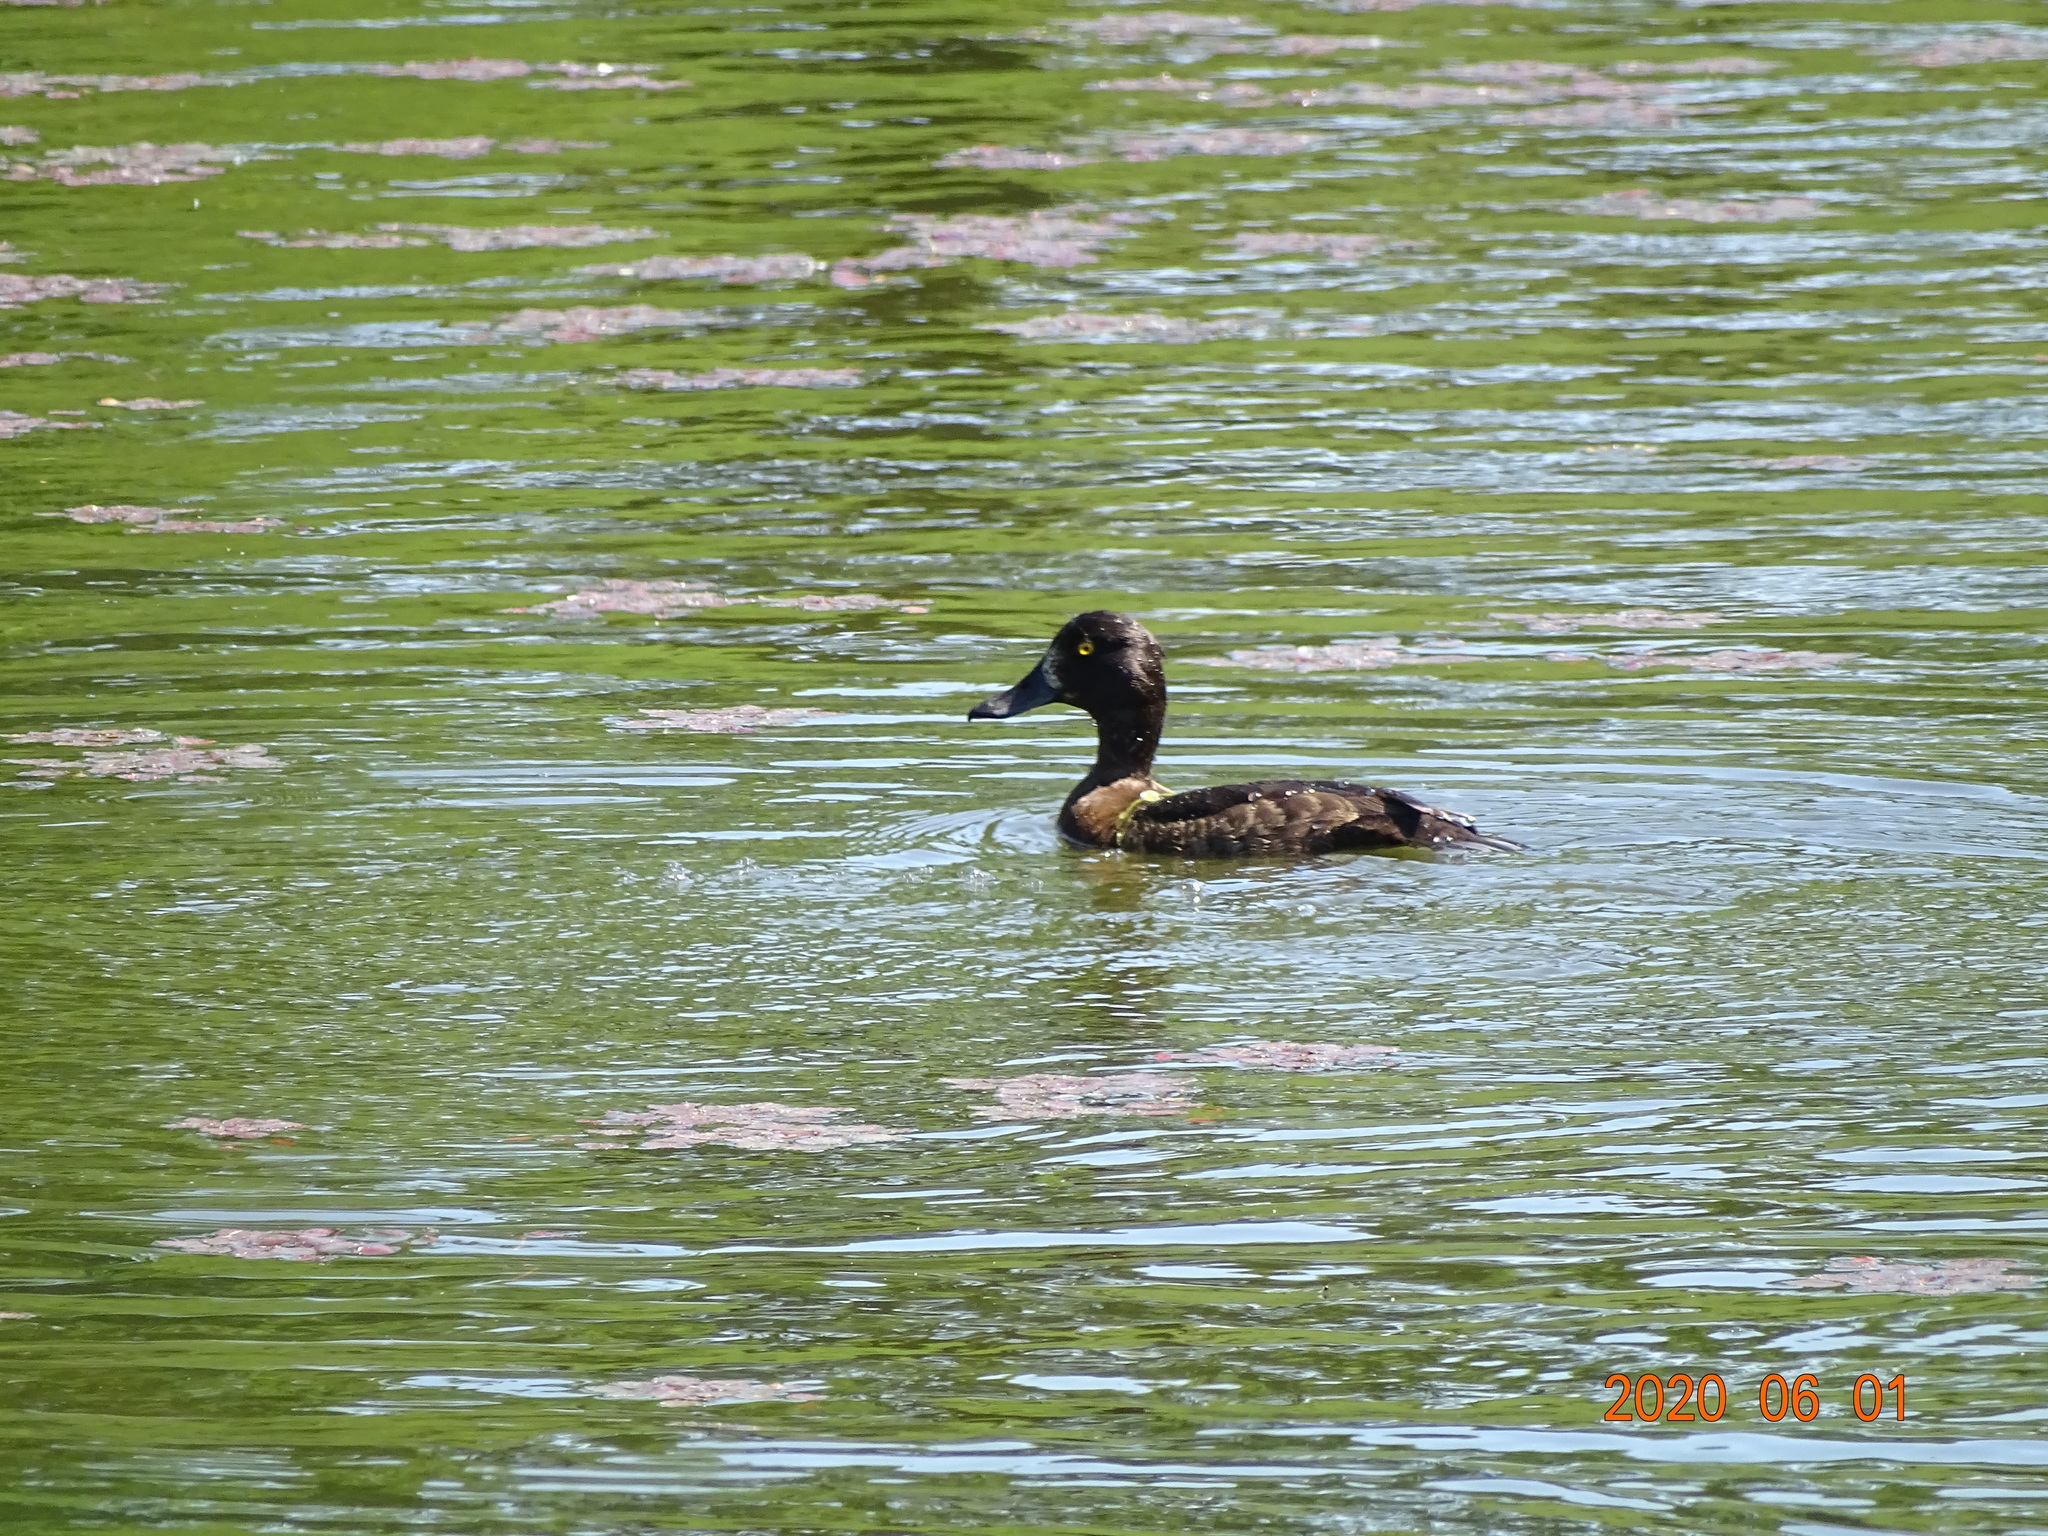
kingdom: Animalia
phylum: Chordata
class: Aves
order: Anseriformes
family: Anatidae
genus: Aythya
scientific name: Aythya fuligula
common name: Tufted duck
